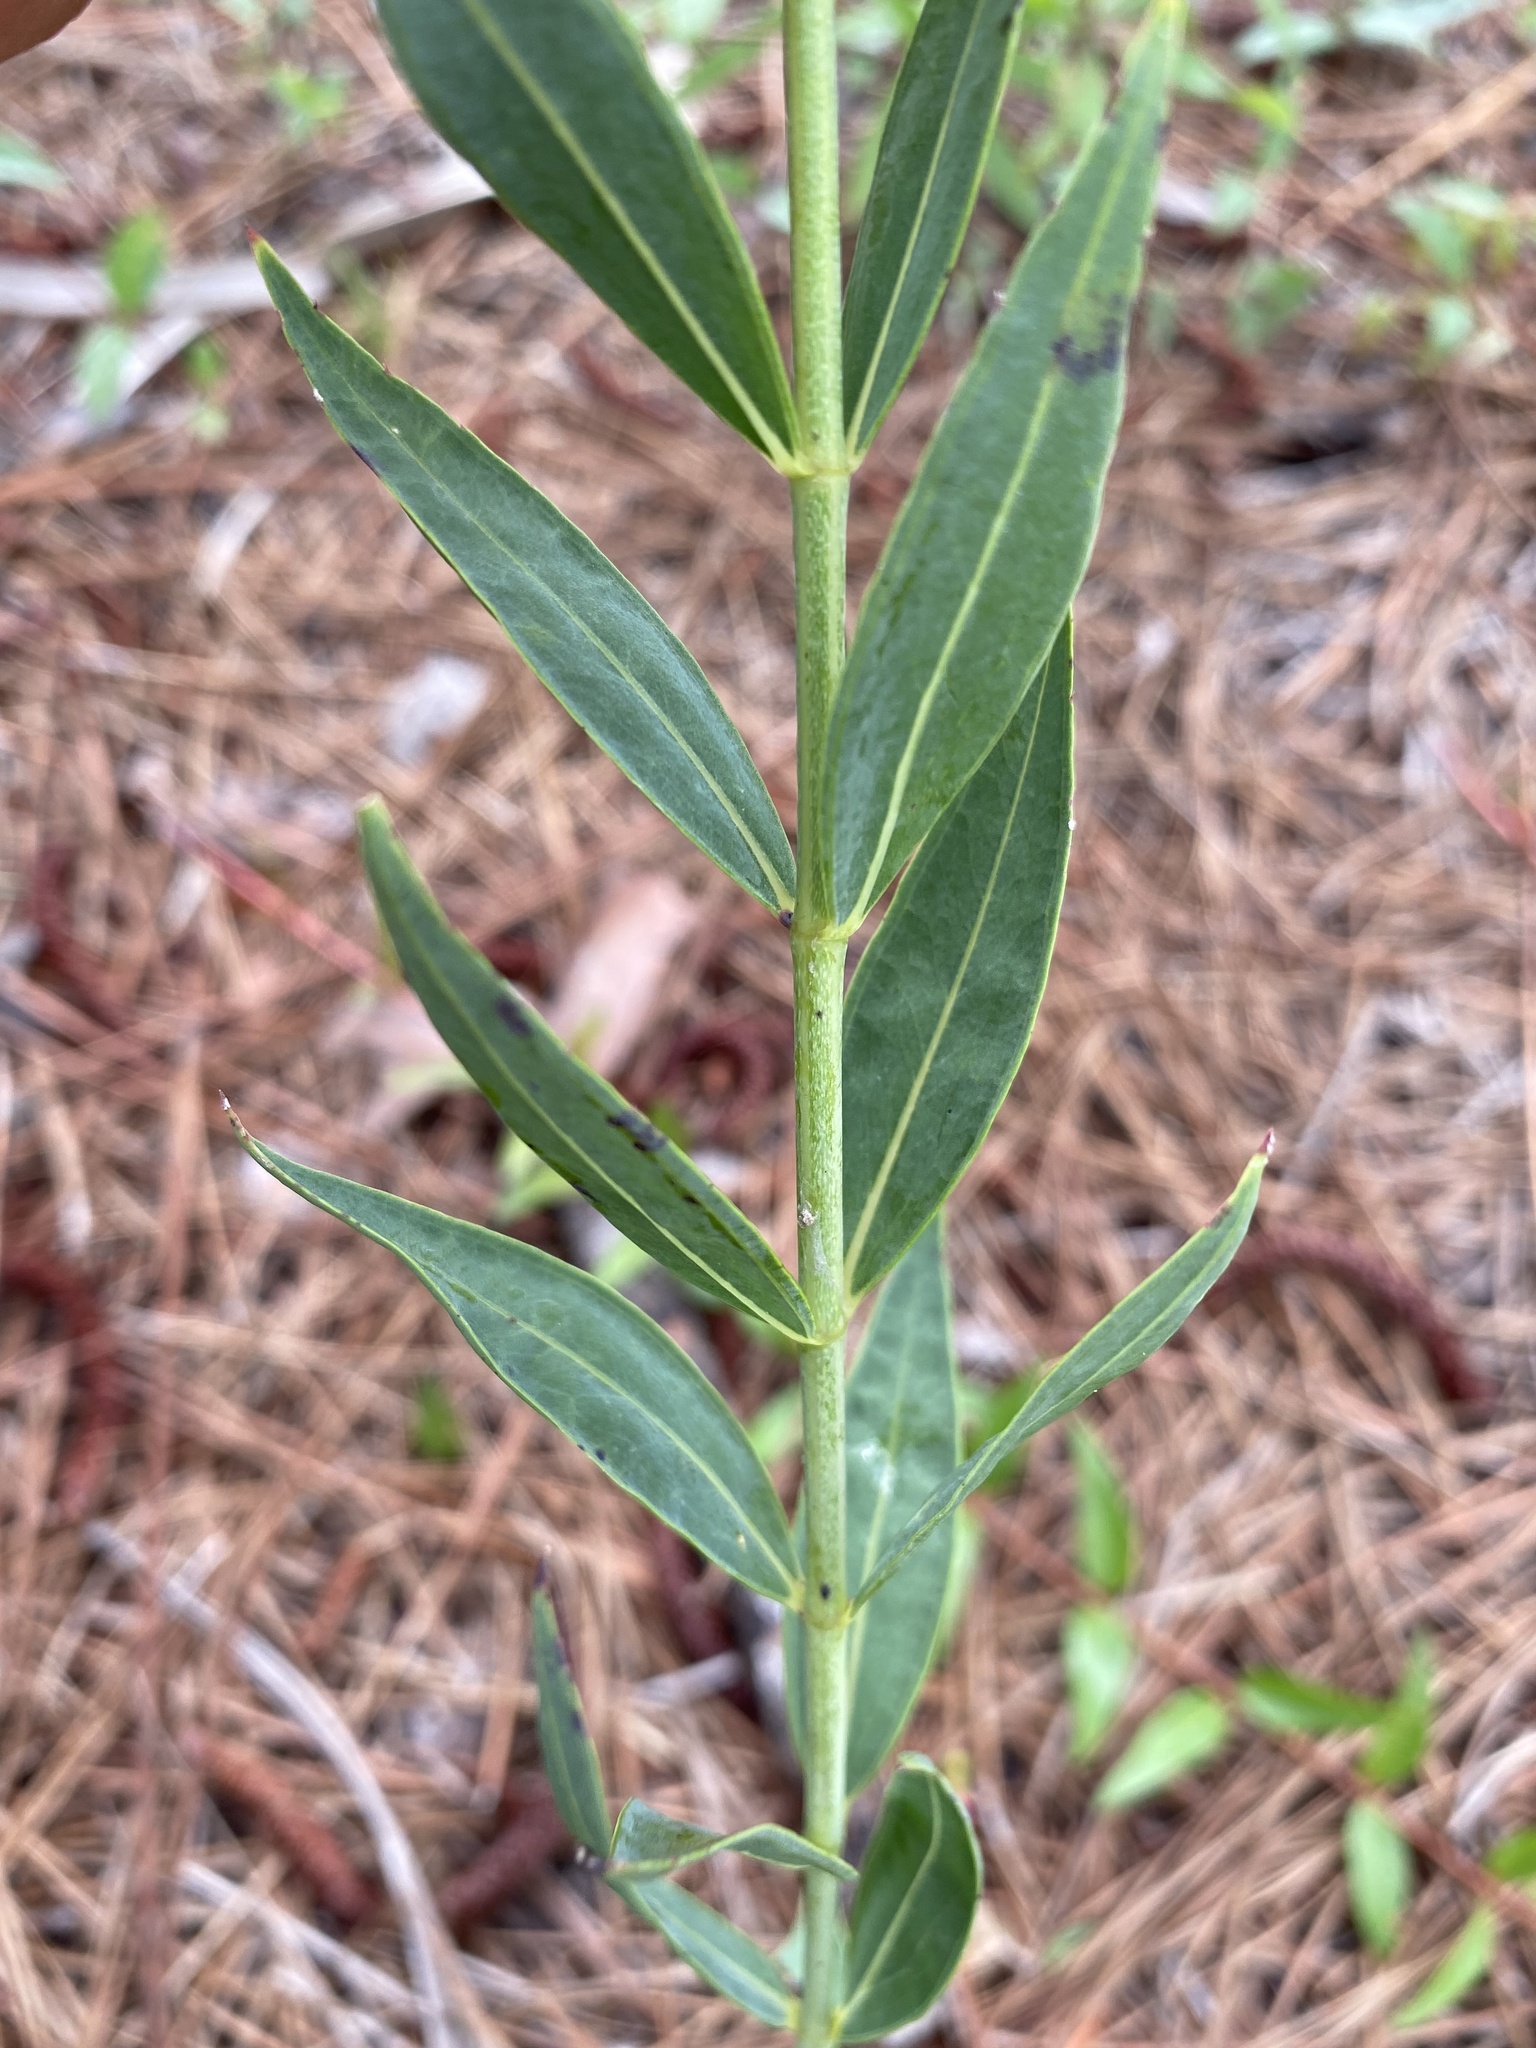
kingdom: Plantae
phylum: Tracheophyta
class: Magnoliopsida
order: Myrtales
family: Melastomataceae
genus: Rhexia
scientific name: Rhexia alifanus
